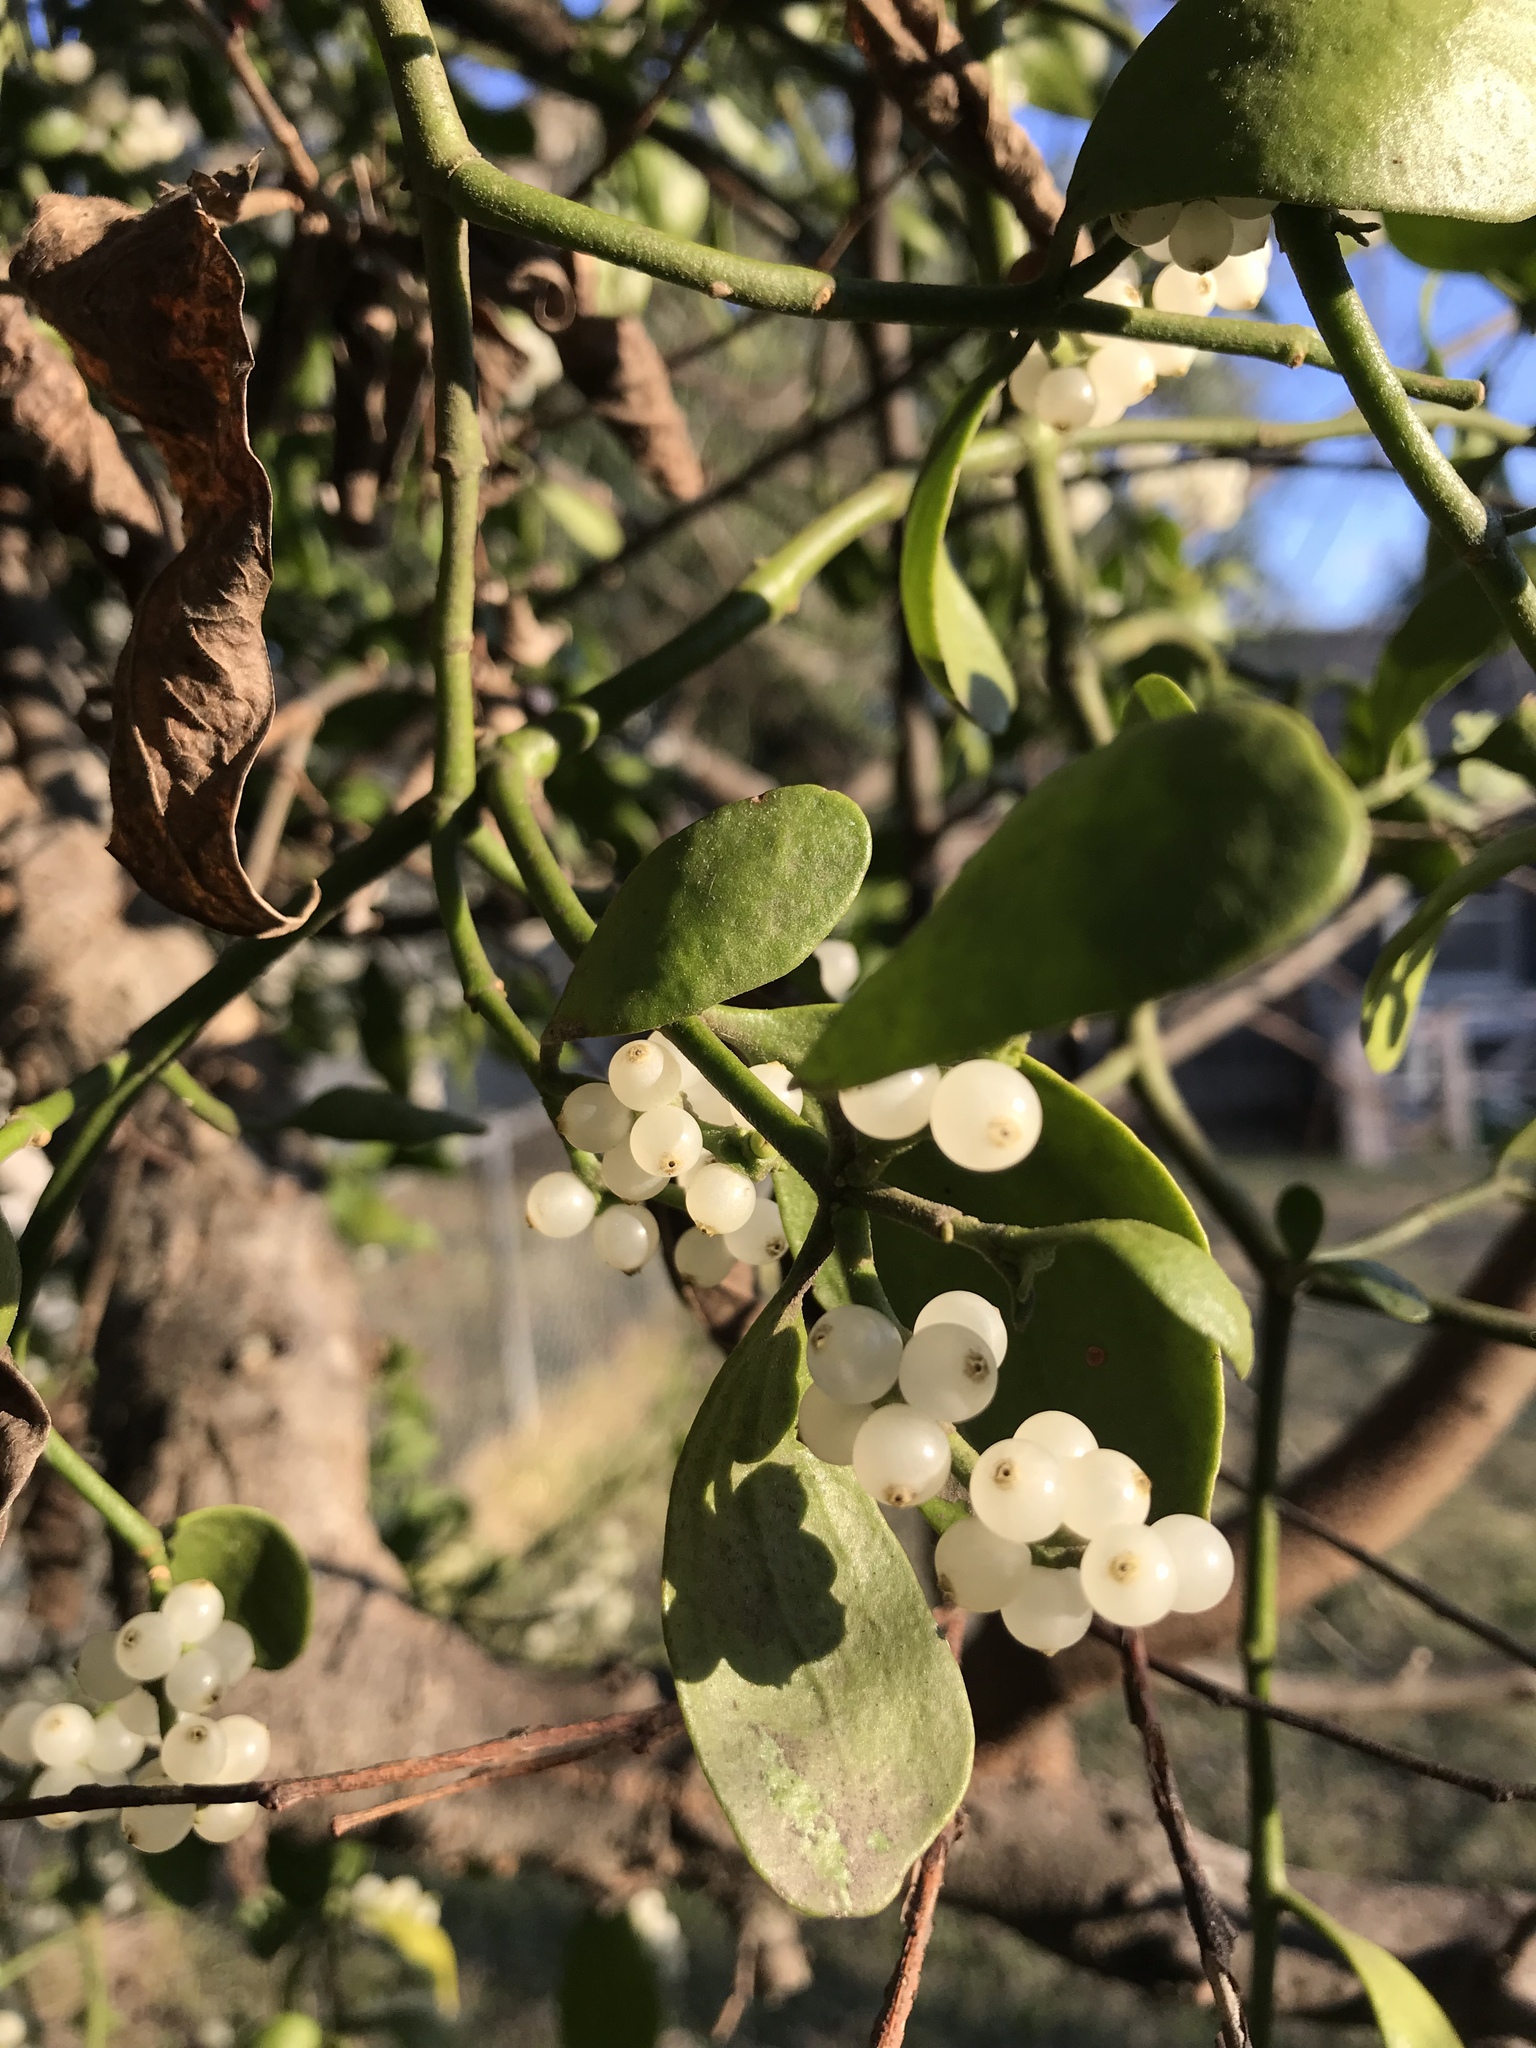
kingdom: Plantae
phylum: Tracheophyta
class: Magnoliopsida
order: Santalales
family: Viscaceae
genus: Phoradendron
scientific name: Phoradendron leucarpum
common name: Pacific mistletoe
